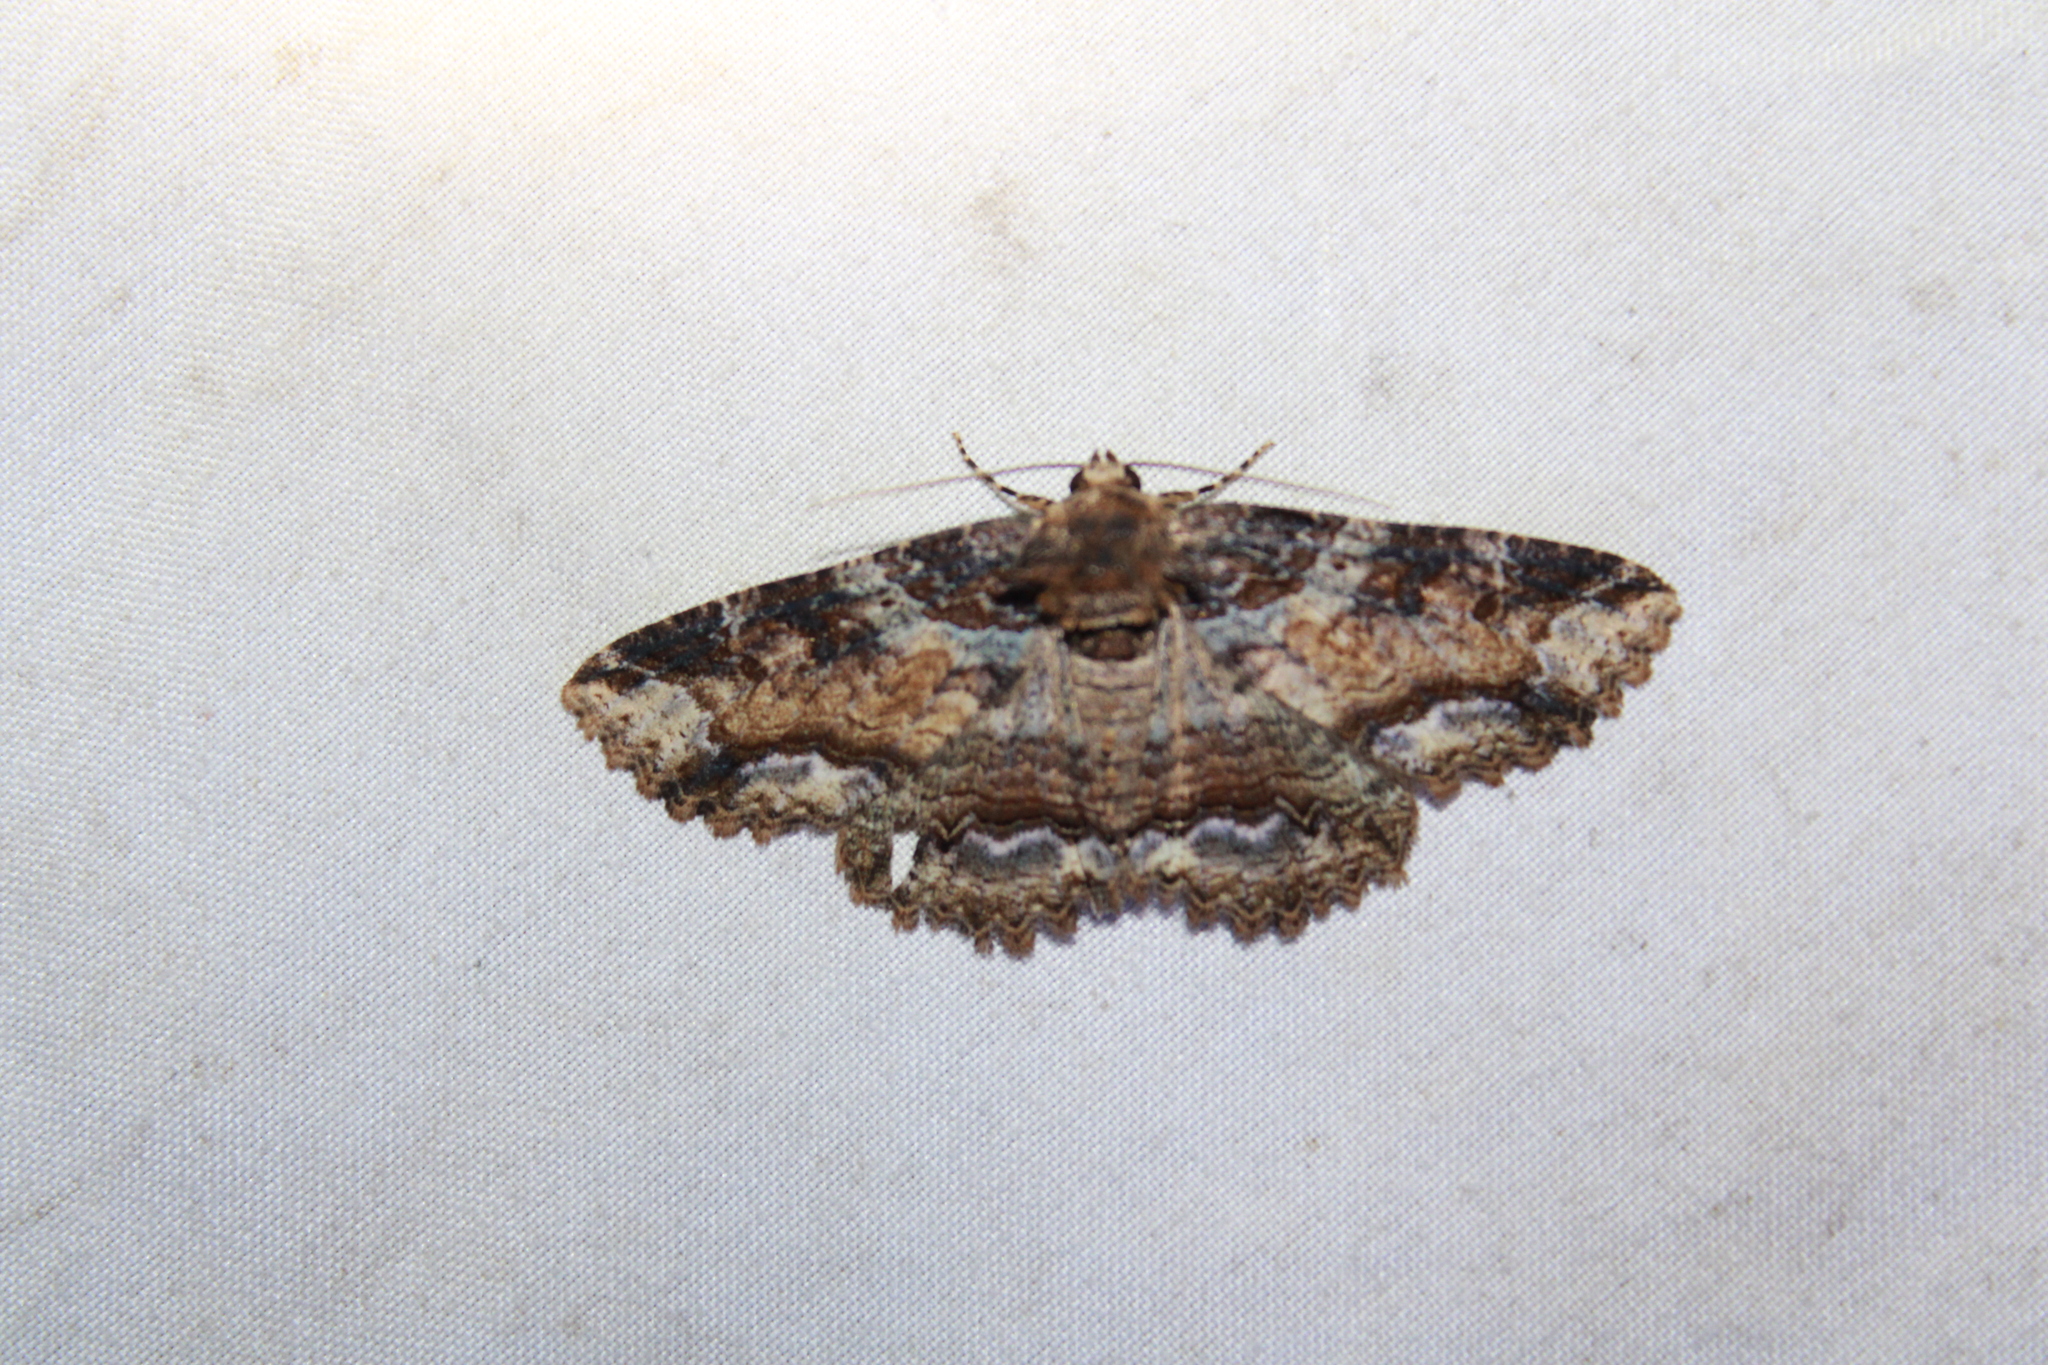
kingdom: Animalia
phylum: Arthropoda
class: Insecta
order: Lepidoptera
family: Erebidae
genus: Zale
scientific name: Zale minerea
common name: Colorful zale moth
